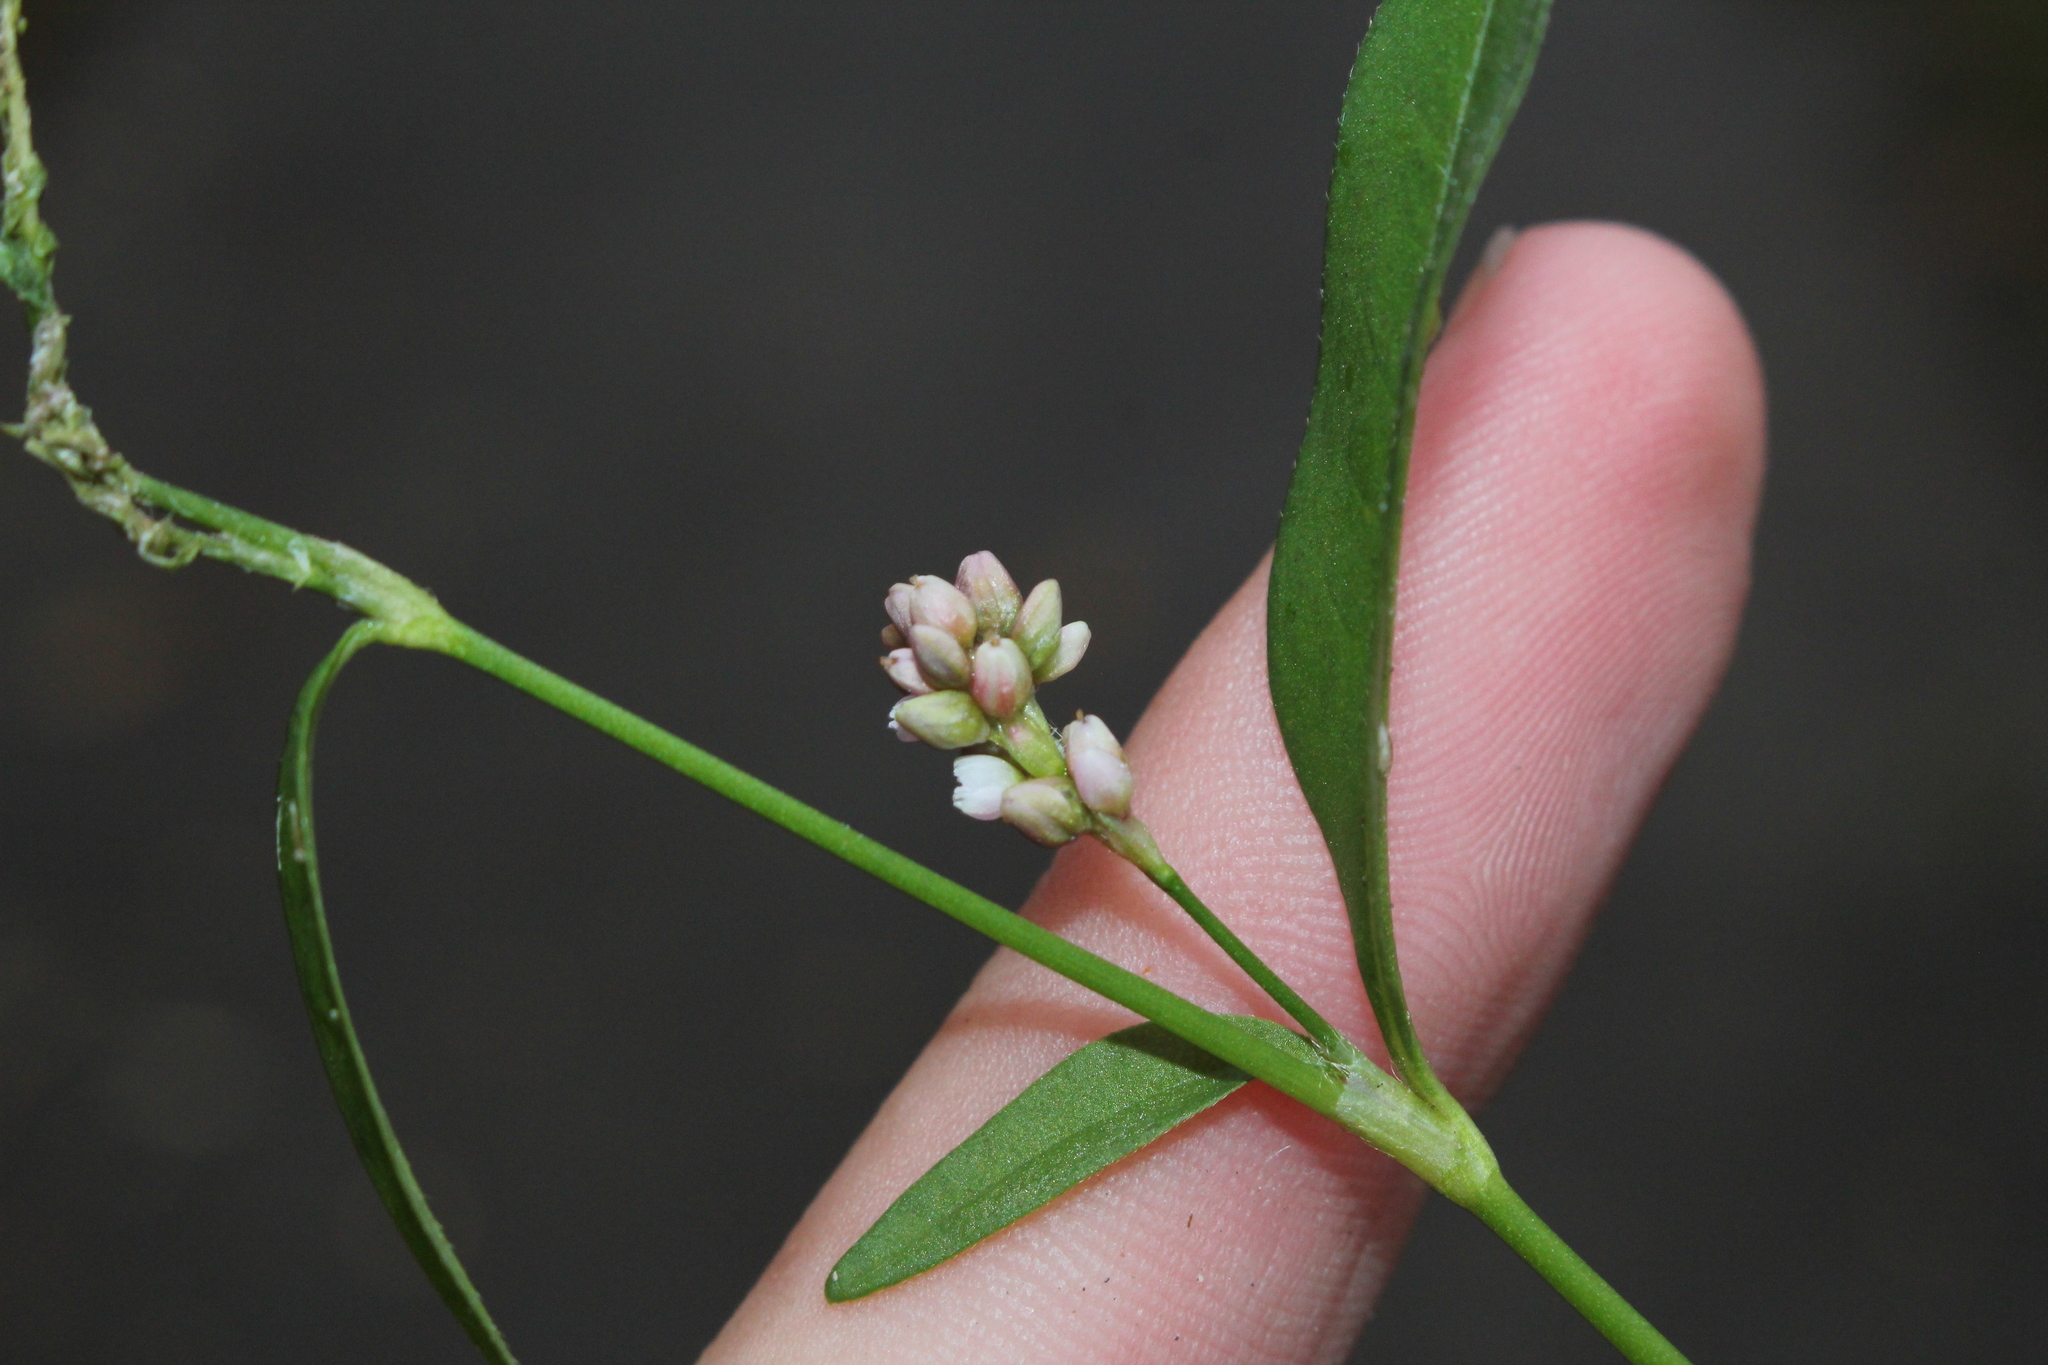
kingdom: Plantae
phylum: Tracheophyta
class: Magnoliopsida
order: Caryophyllales
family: Polygonaceae
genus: Persicaria
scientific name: Persicaria maculosa
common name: Redshank
